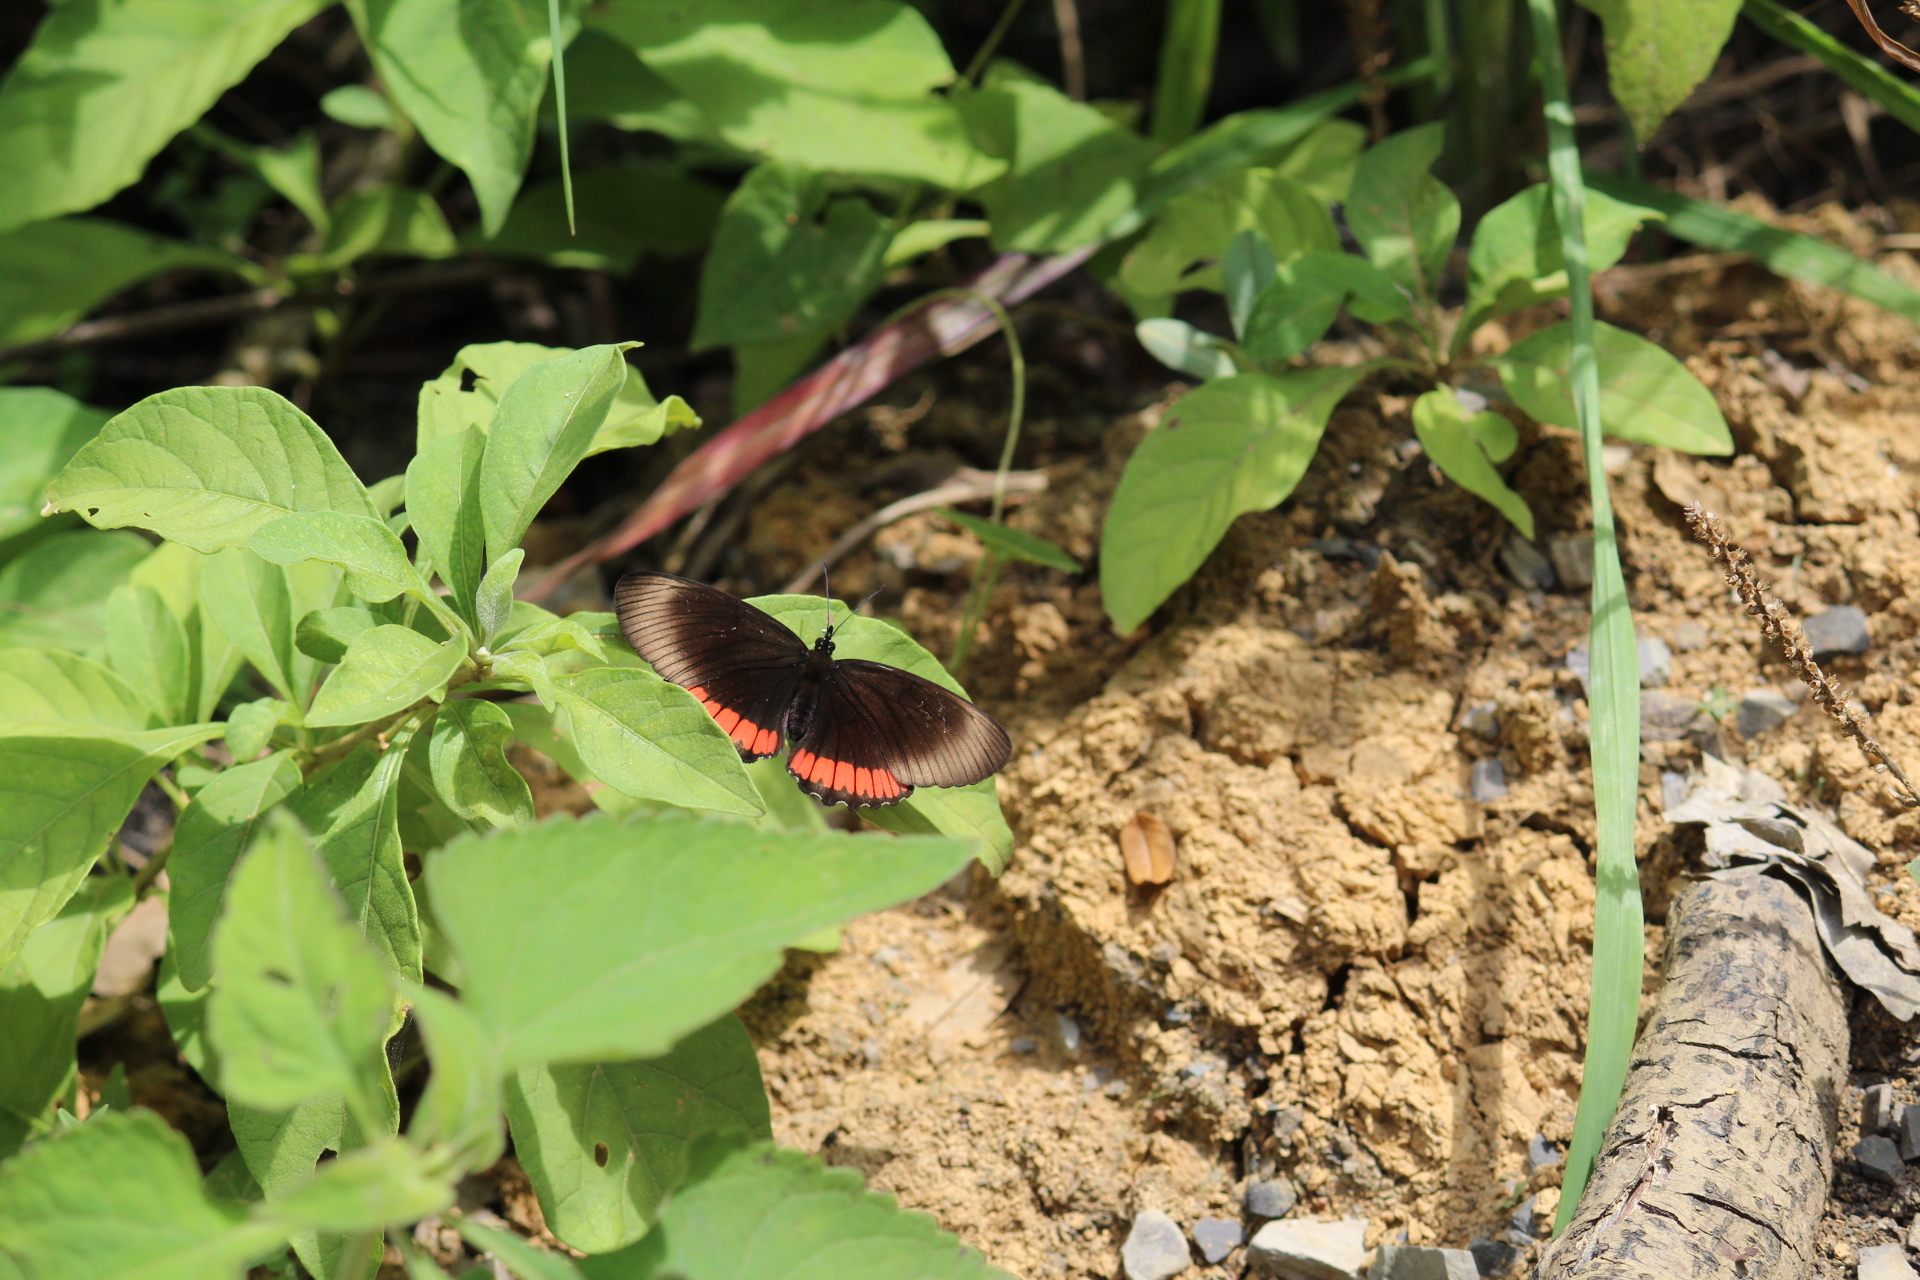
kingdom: Animalia
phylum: Arthropoda
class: Insecta
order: Lepidoptera
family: Sesiidae
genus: Sesia
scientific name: Sesia Biblis hyperia
